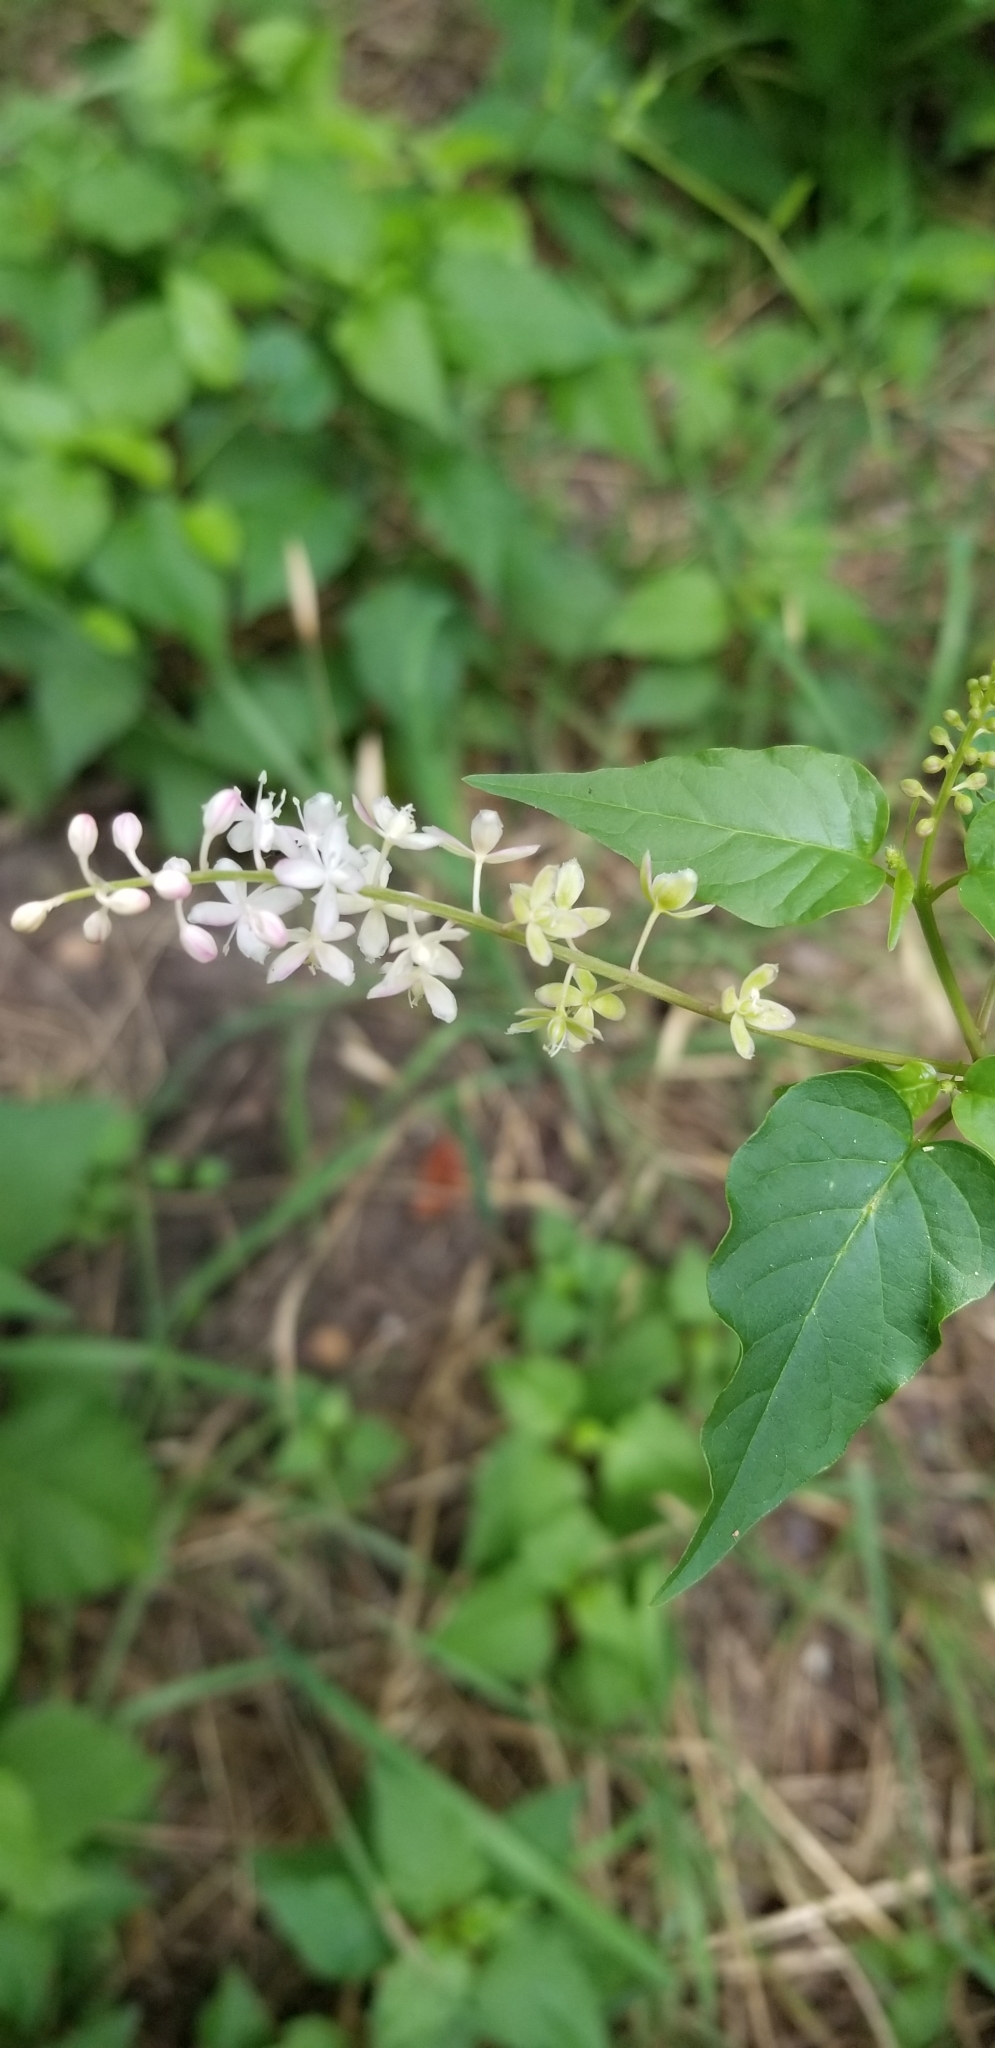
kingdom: Plantae
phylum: Tracheophyta
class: Magnoliopsida
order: Caryophyllales
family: Phytolaccaceae
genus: Rivina
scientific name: Rivina humilis
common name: Rougeplant
